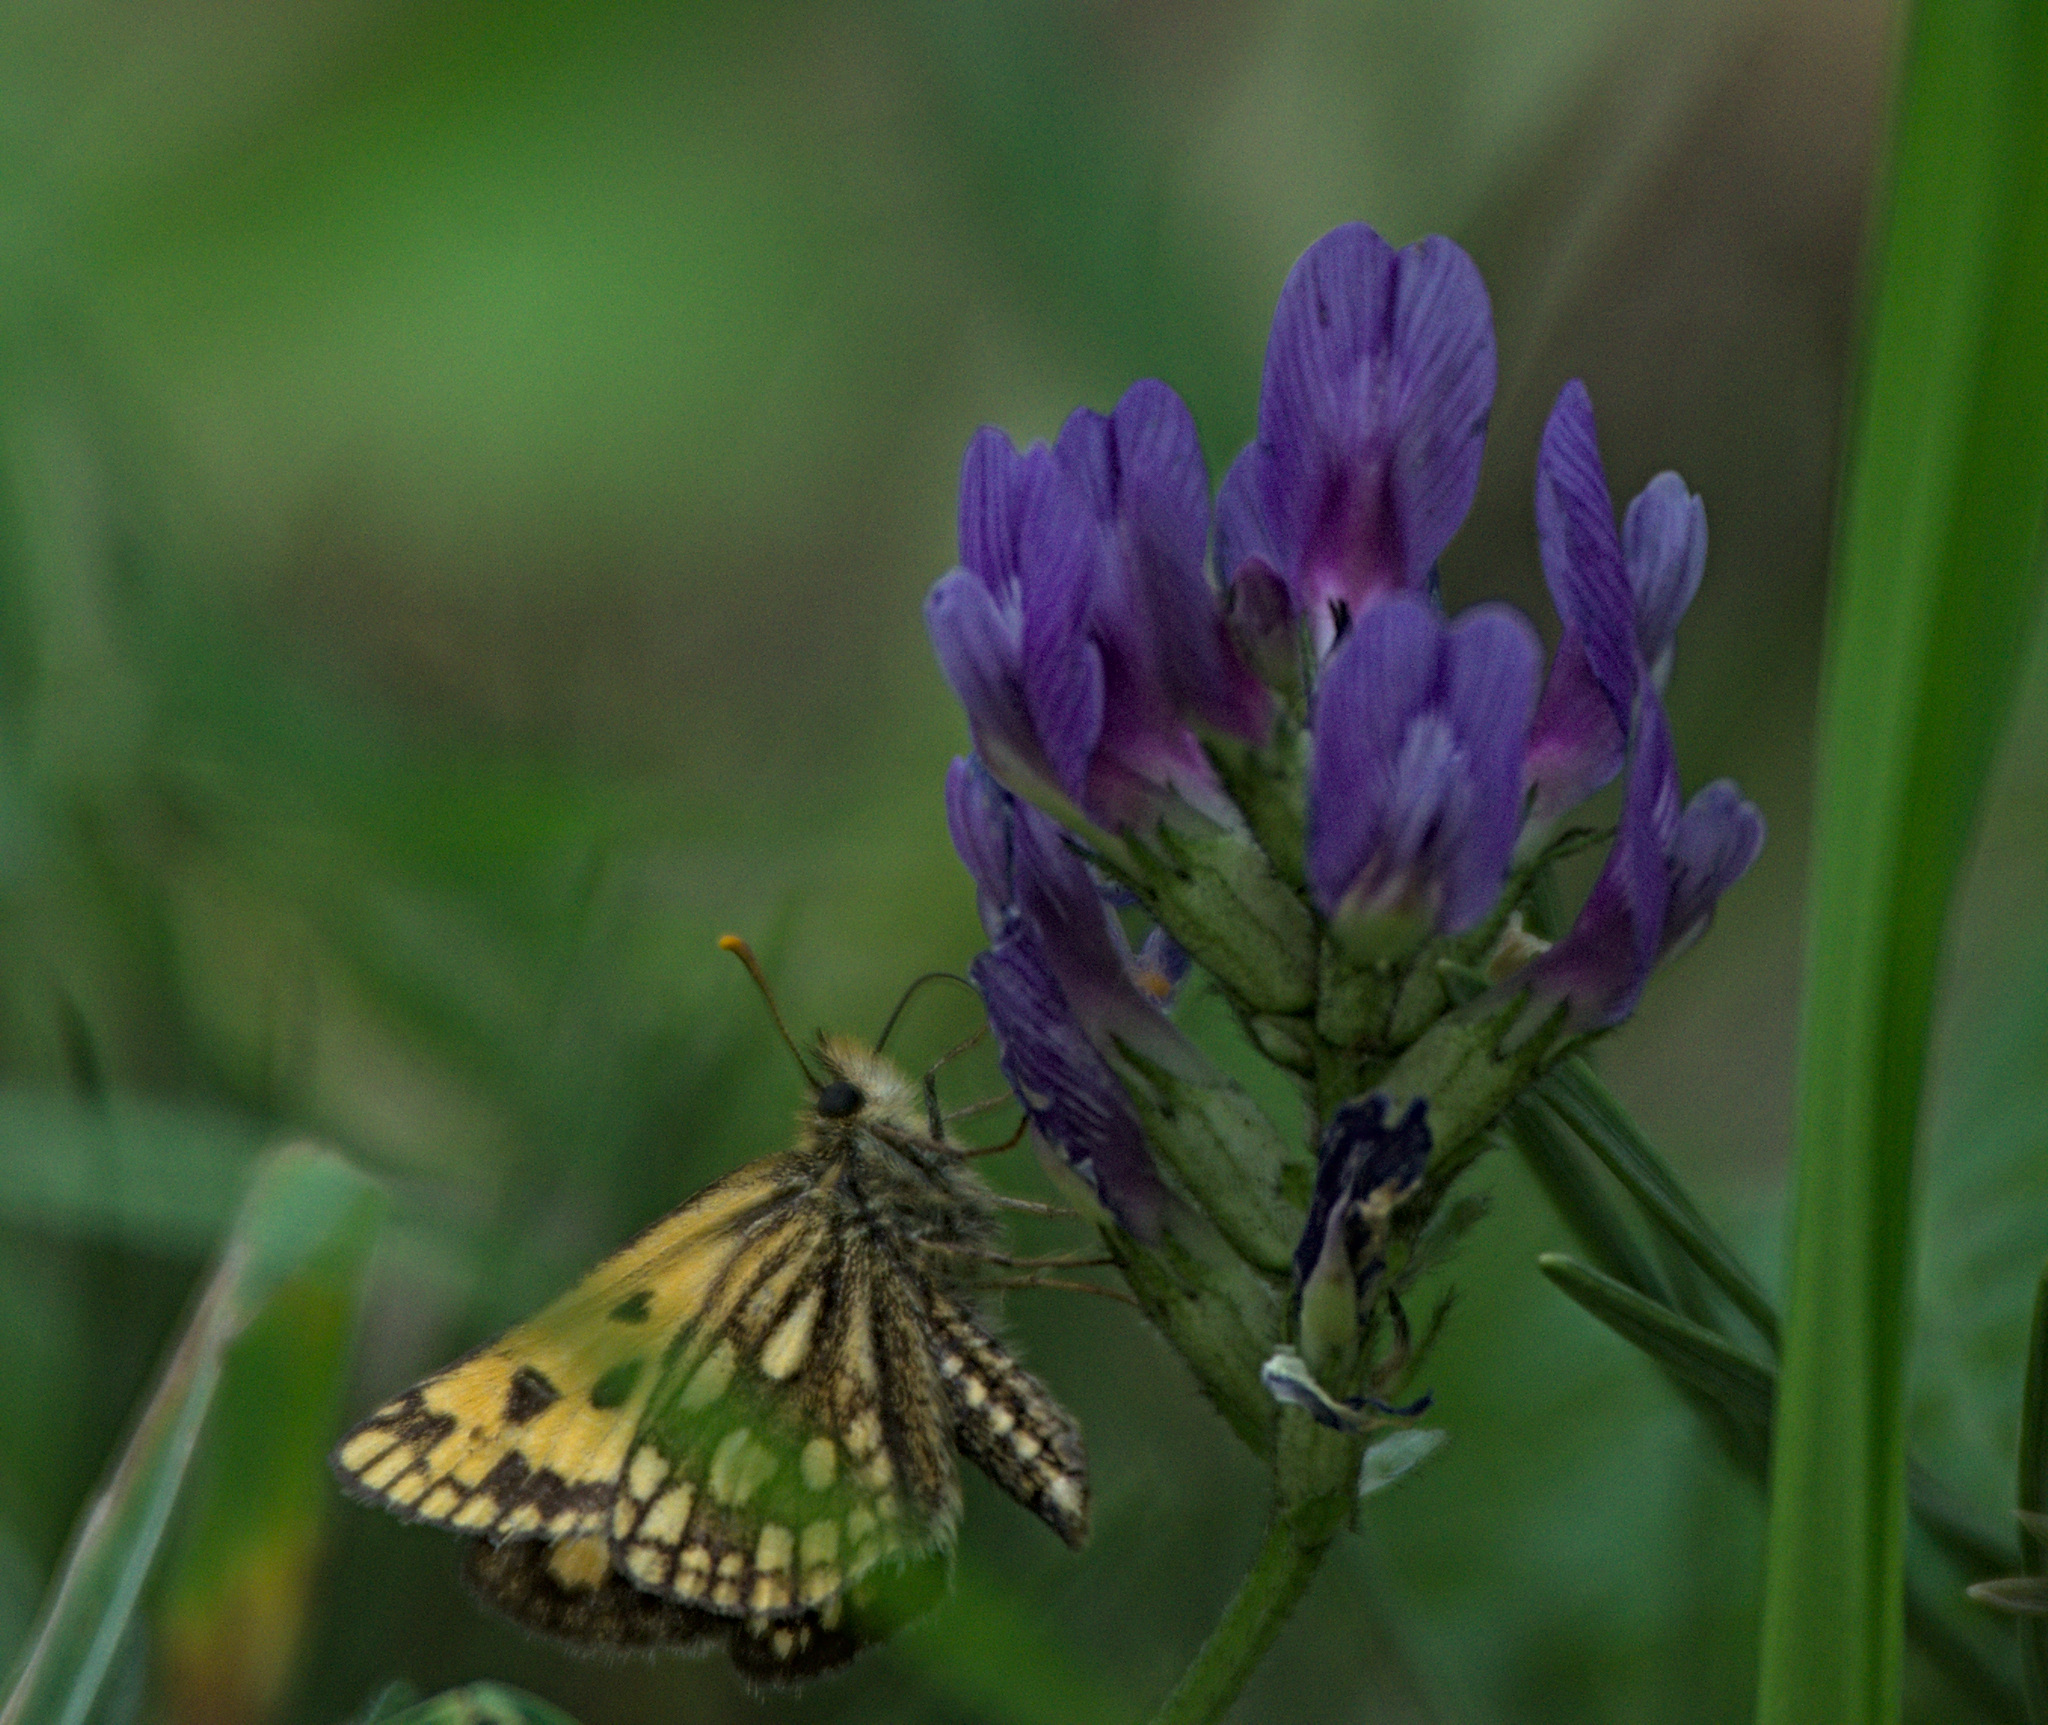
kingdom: Animalia
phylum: Arthropoda
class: Insecta
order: Lepidoptera
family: Hesperiidae
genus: Carterocephalus
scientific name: Carterocephalus silvicola
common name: Northern chequered skipper
